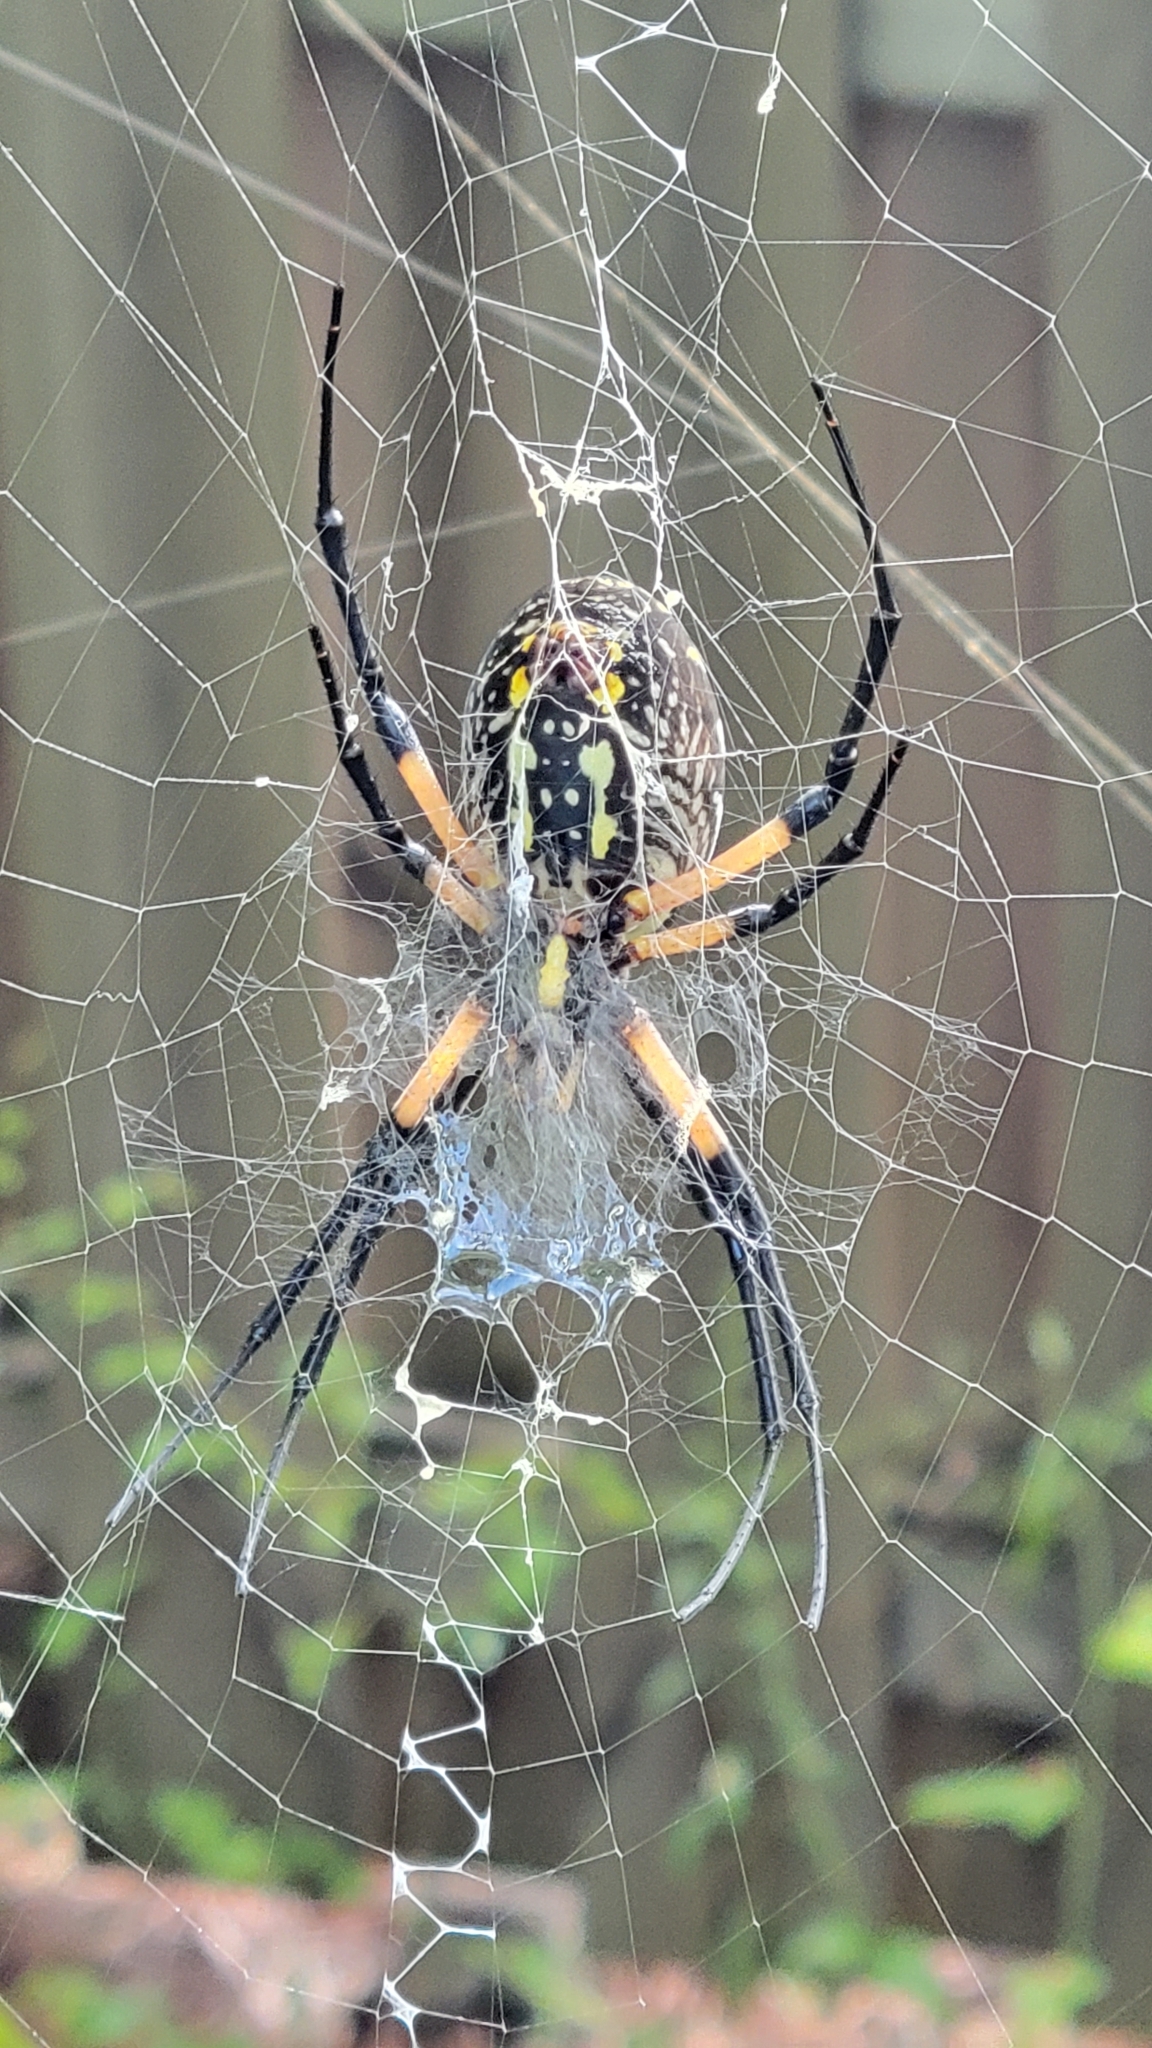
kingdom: Animalia
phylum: Arthropoda
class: Arachnida
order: Araneae
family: Araneidae
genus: Argiope
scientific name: Argiope aurantia
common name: Orb weavers
